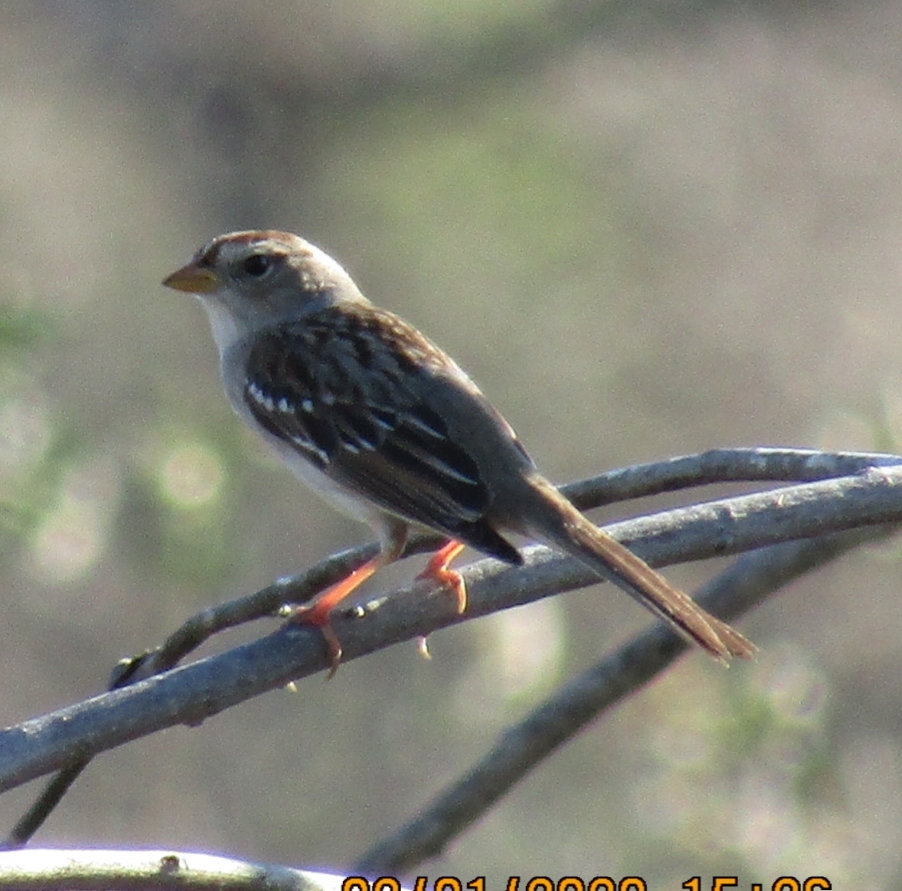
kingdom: Animalia
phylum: Chordata
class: Aves
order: Passeriformes
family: Passerellidae
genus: Zonotrichia
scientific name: Zonotrichia leucophrys
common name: White-crowned sparrow
